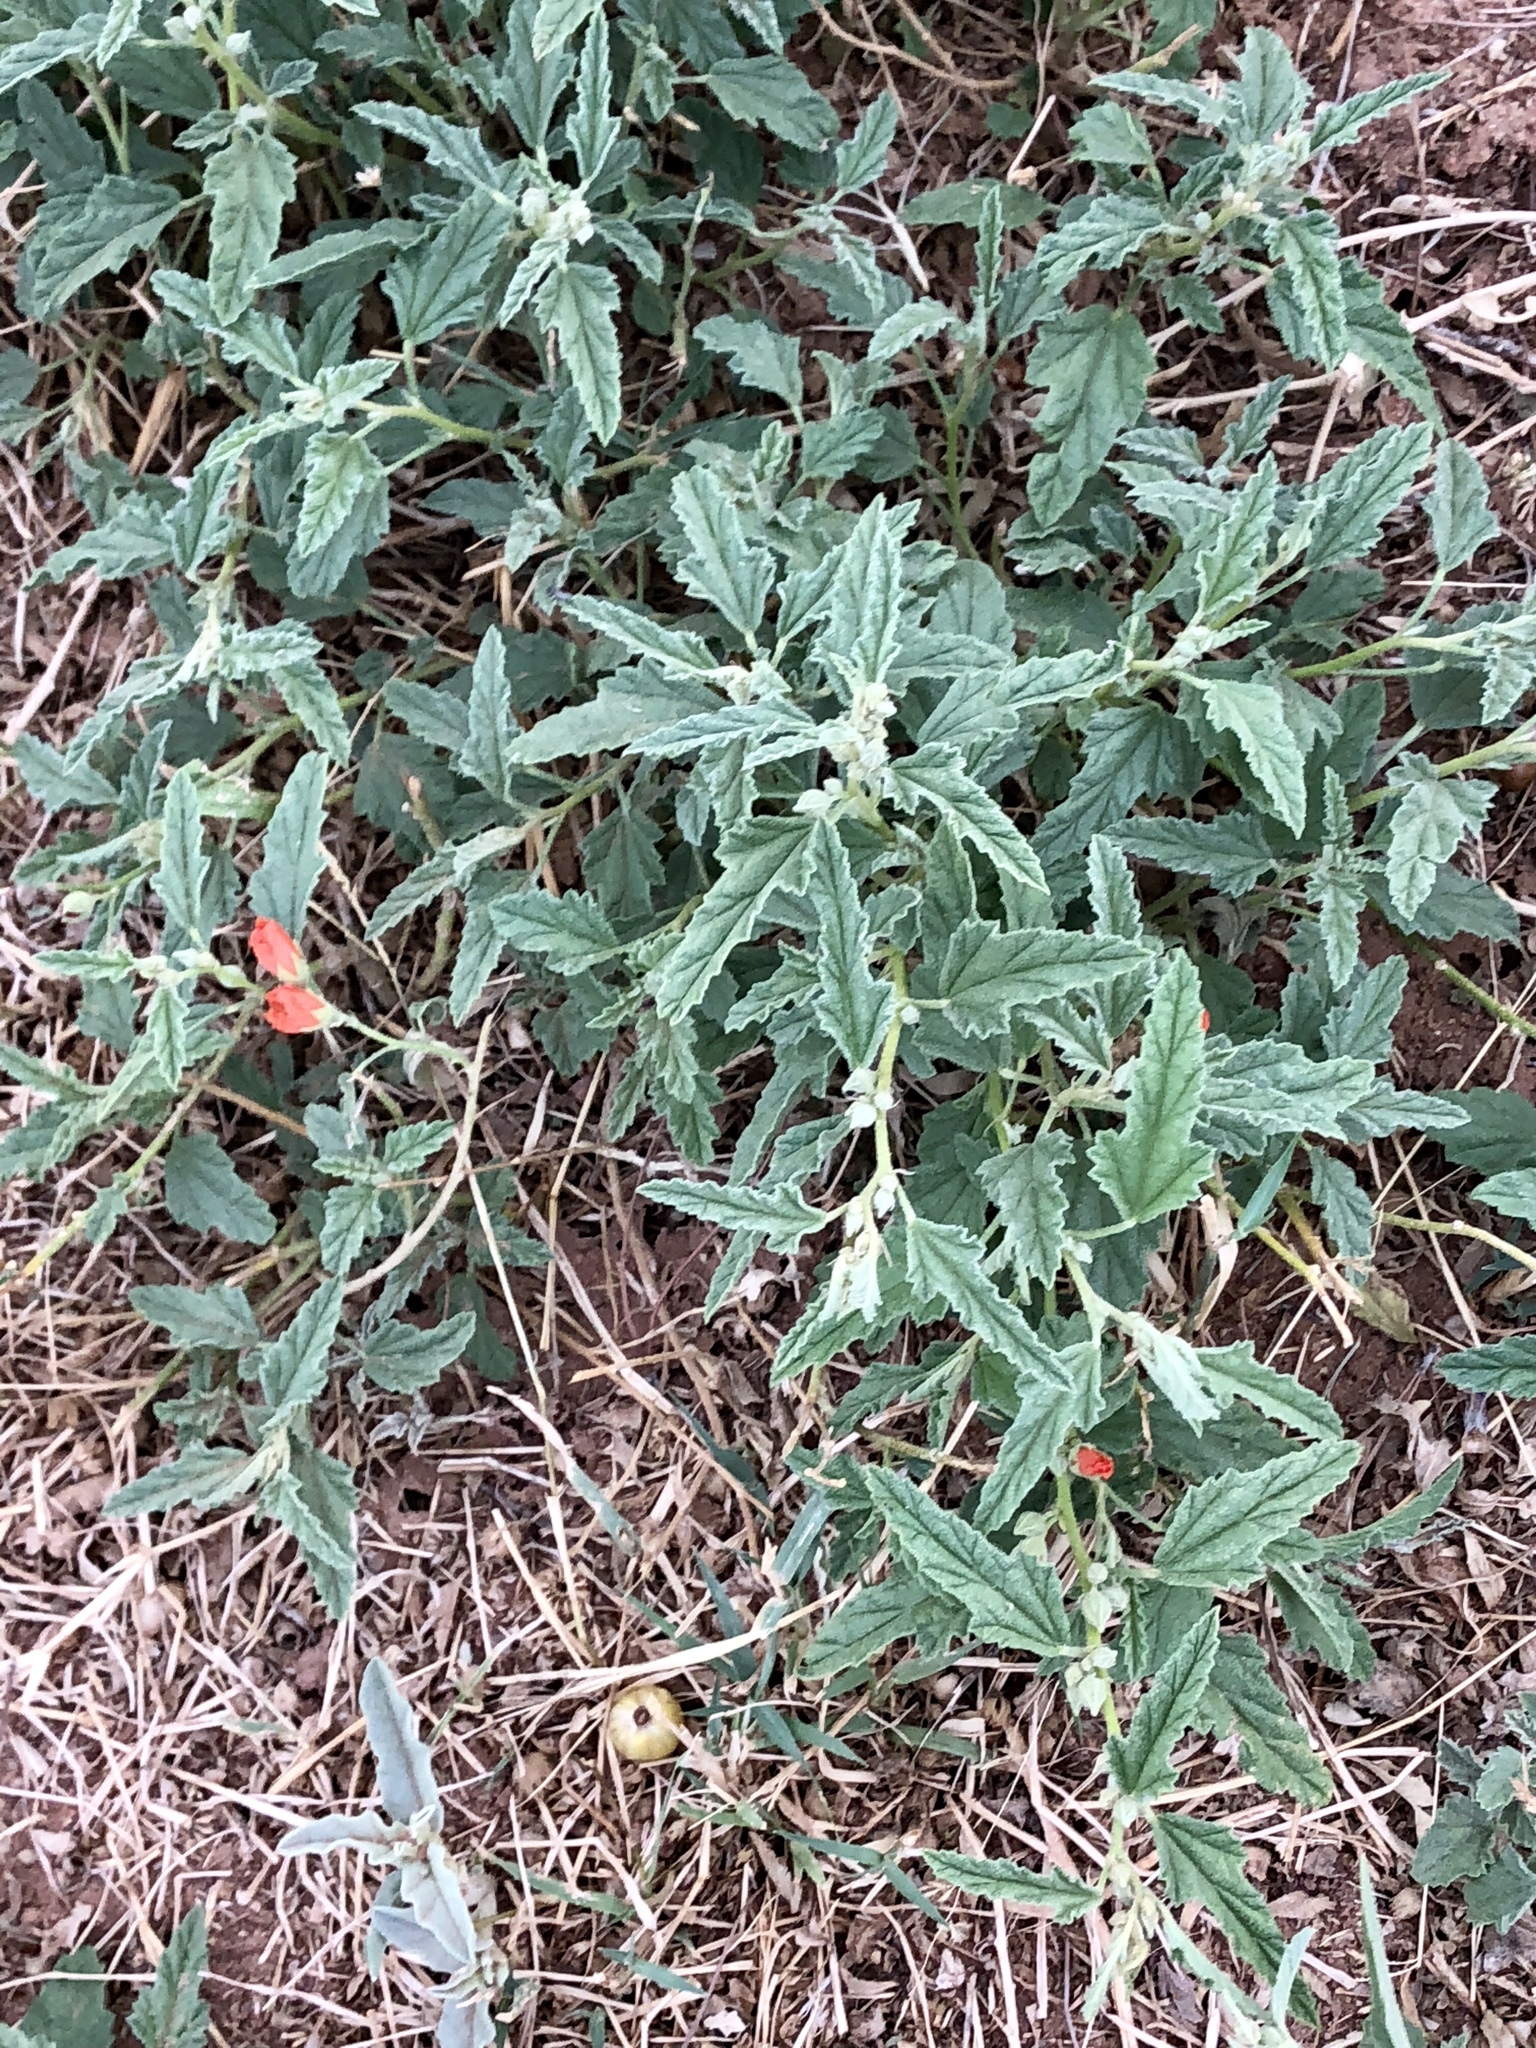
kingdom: Plantae
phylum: Tracheophyta
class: Magnoliopsida
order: Malvales
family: Malvaceae
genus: Sphaeralcea
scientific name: Sphaeralcea angustifolia
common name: Copper globe-mallow
